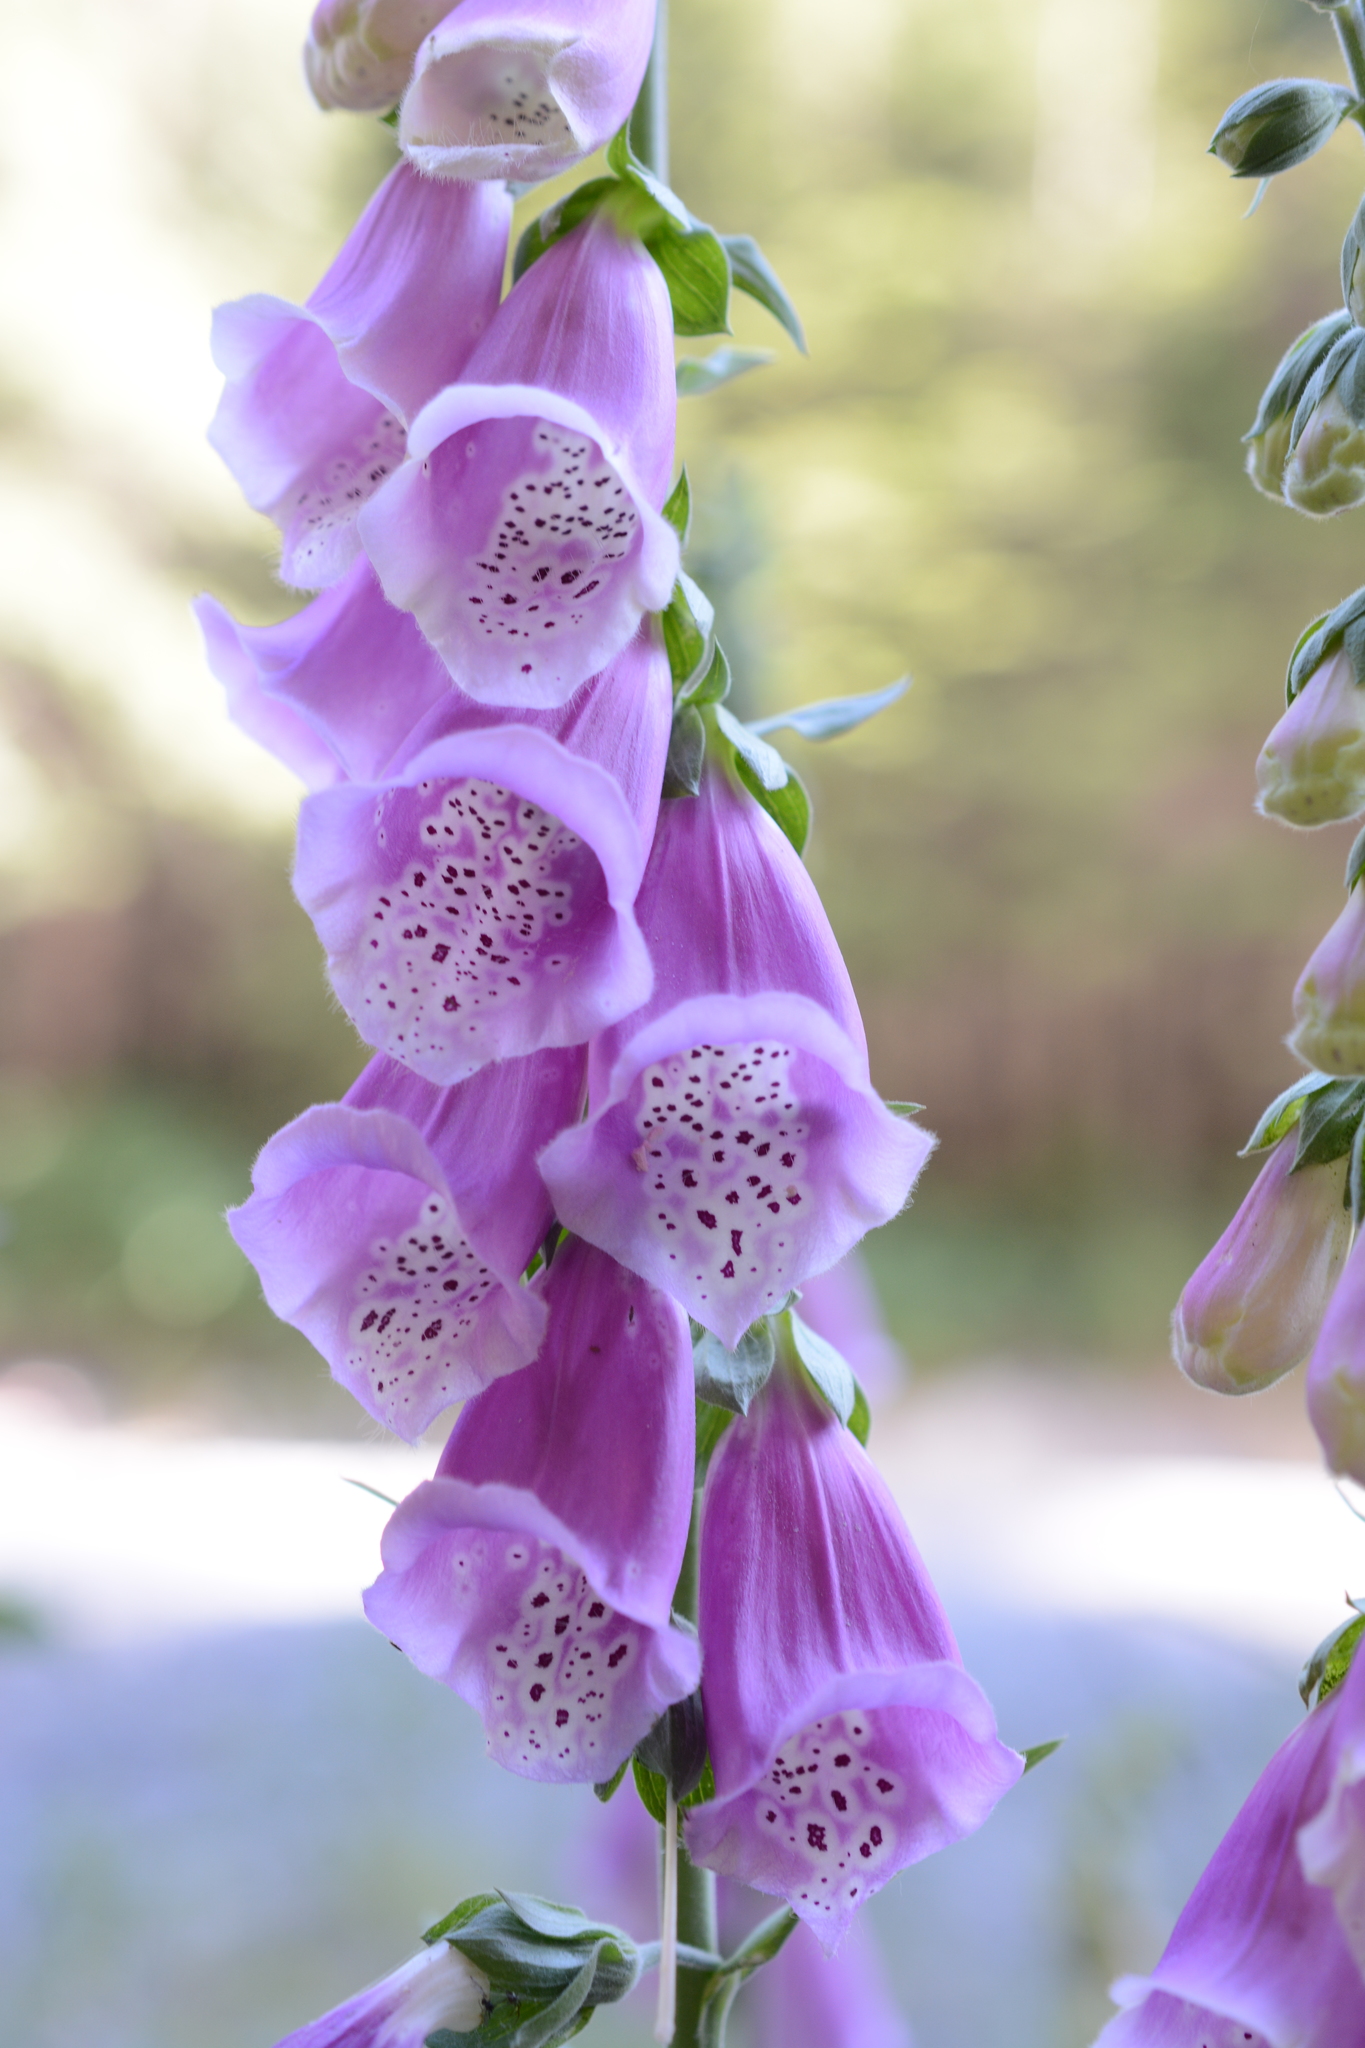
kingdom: Plantae
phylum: Tracheophyta
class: Magnoliopsida
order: Lamiales
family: Plantaginaceae
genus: Digitalis
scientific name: Digitalis purpurea
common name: Foxglove
